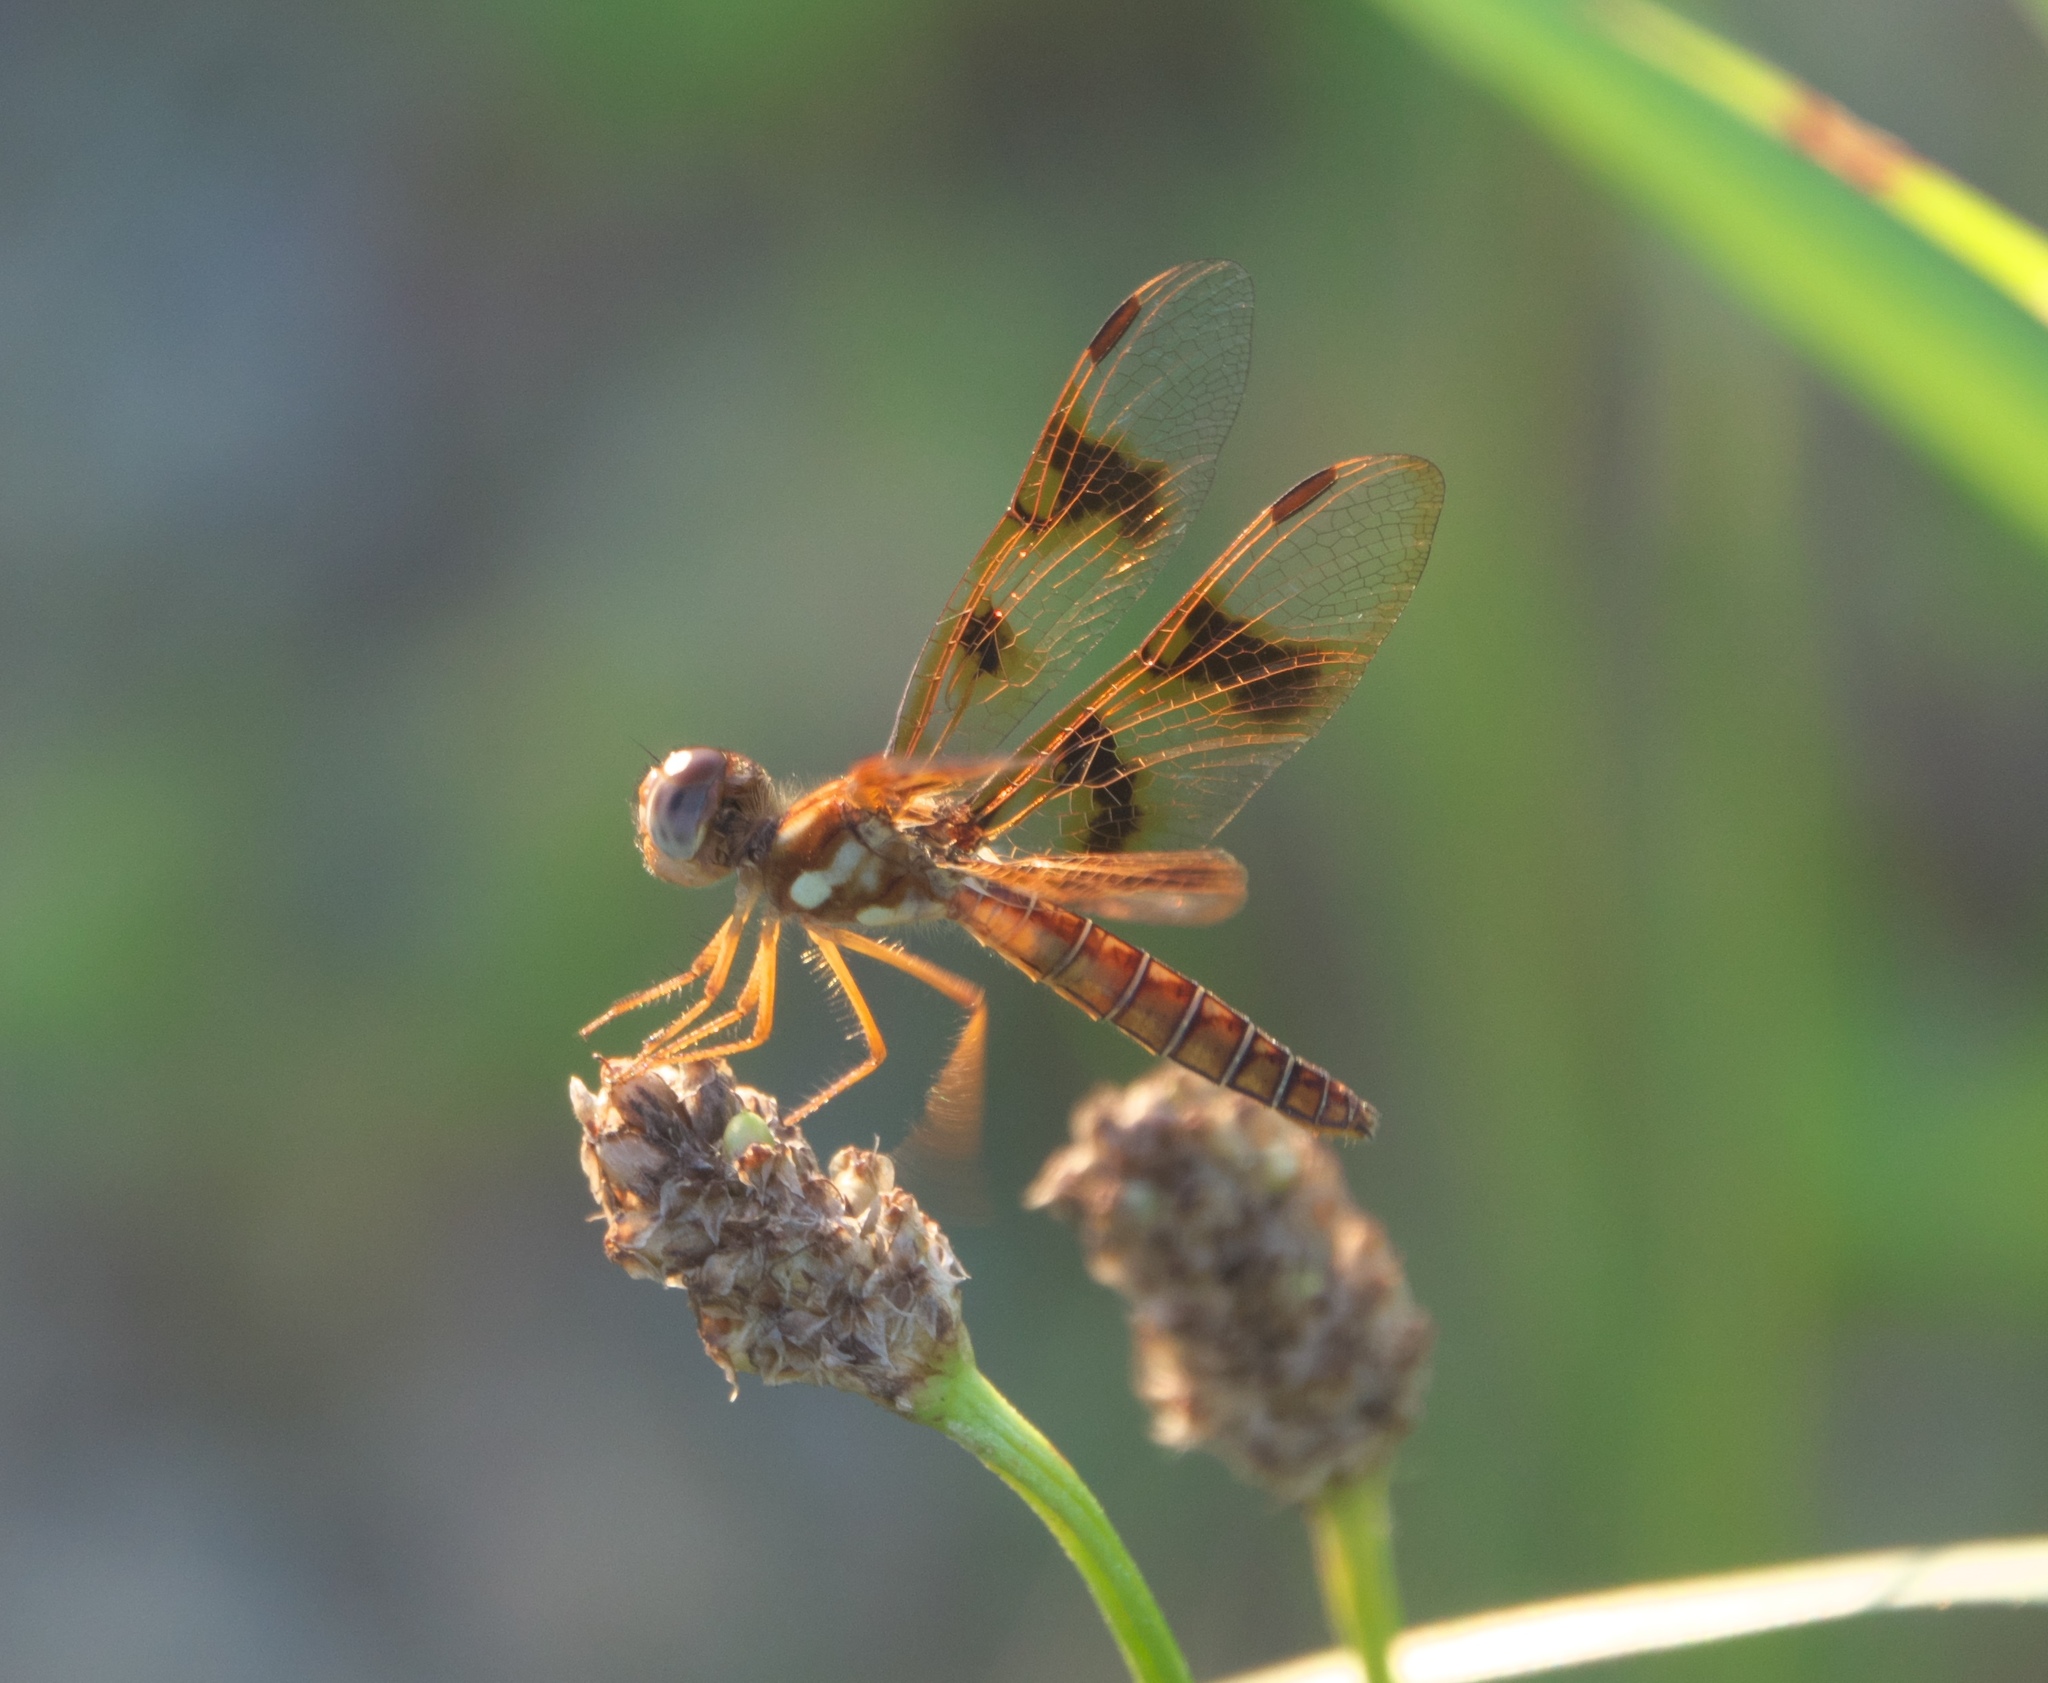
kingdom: Animalia
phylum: Arthropoda
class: Insecta
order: Odonata
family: Libellulidae
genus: Perithemis
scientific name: Perithemis tenera
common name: Eastern amberwing
